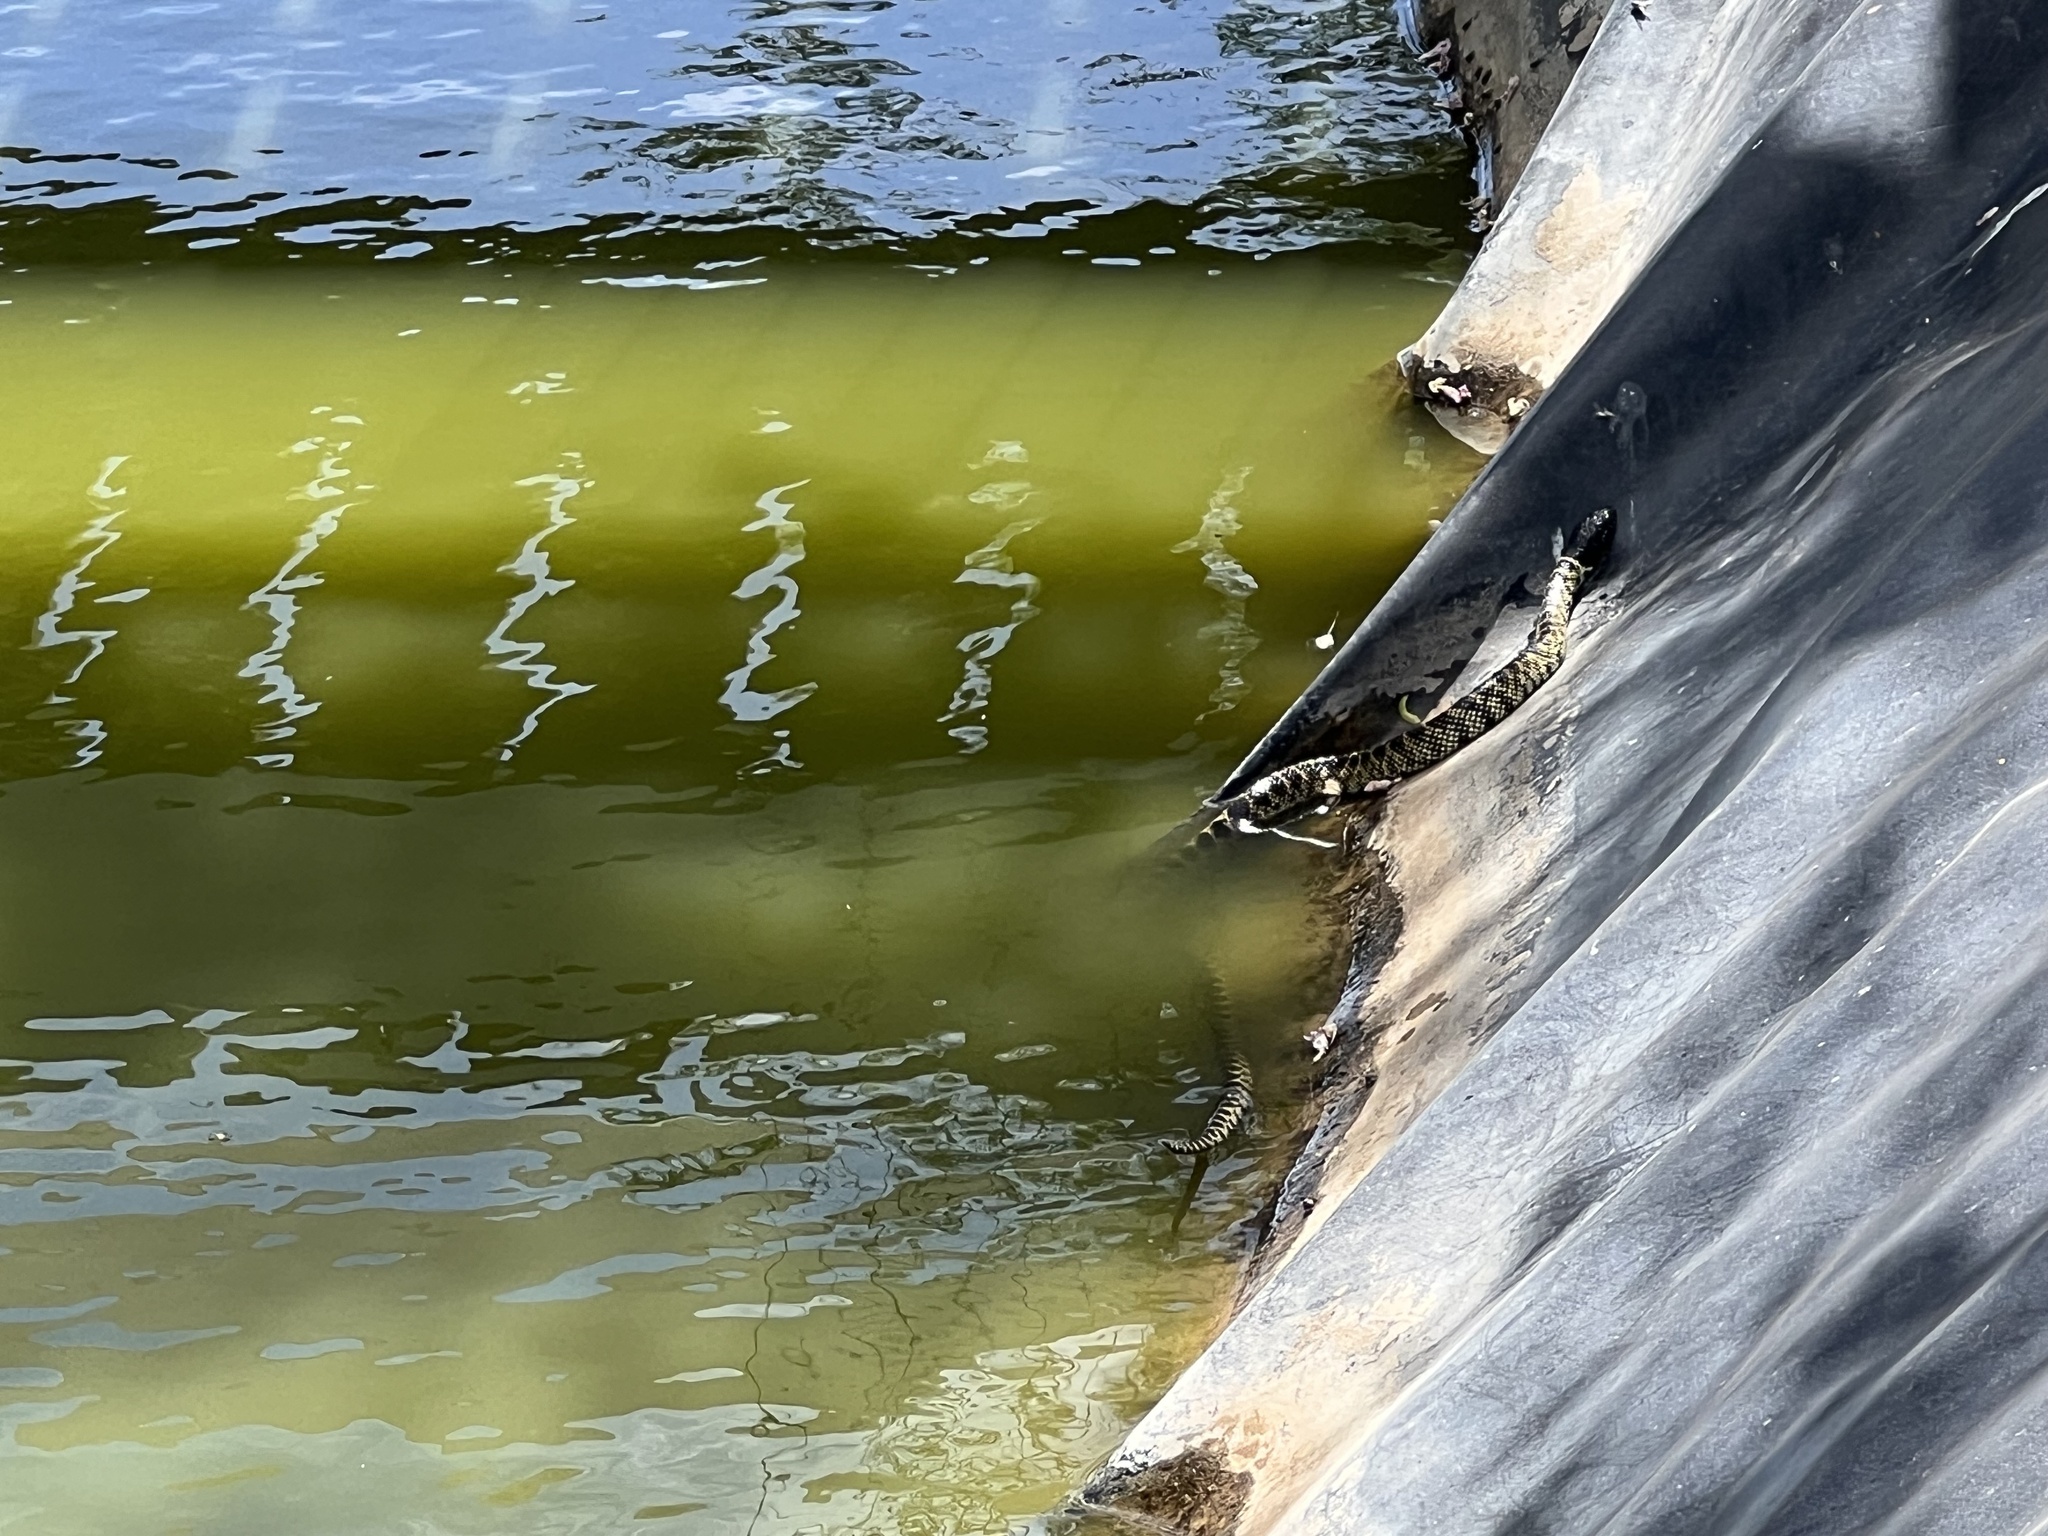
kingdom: Animalia
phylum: Chordata
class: Squamata
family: Colubridae
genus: Lampropeltis
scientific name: Lampropeltis splendida
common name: Desert kingsnake
